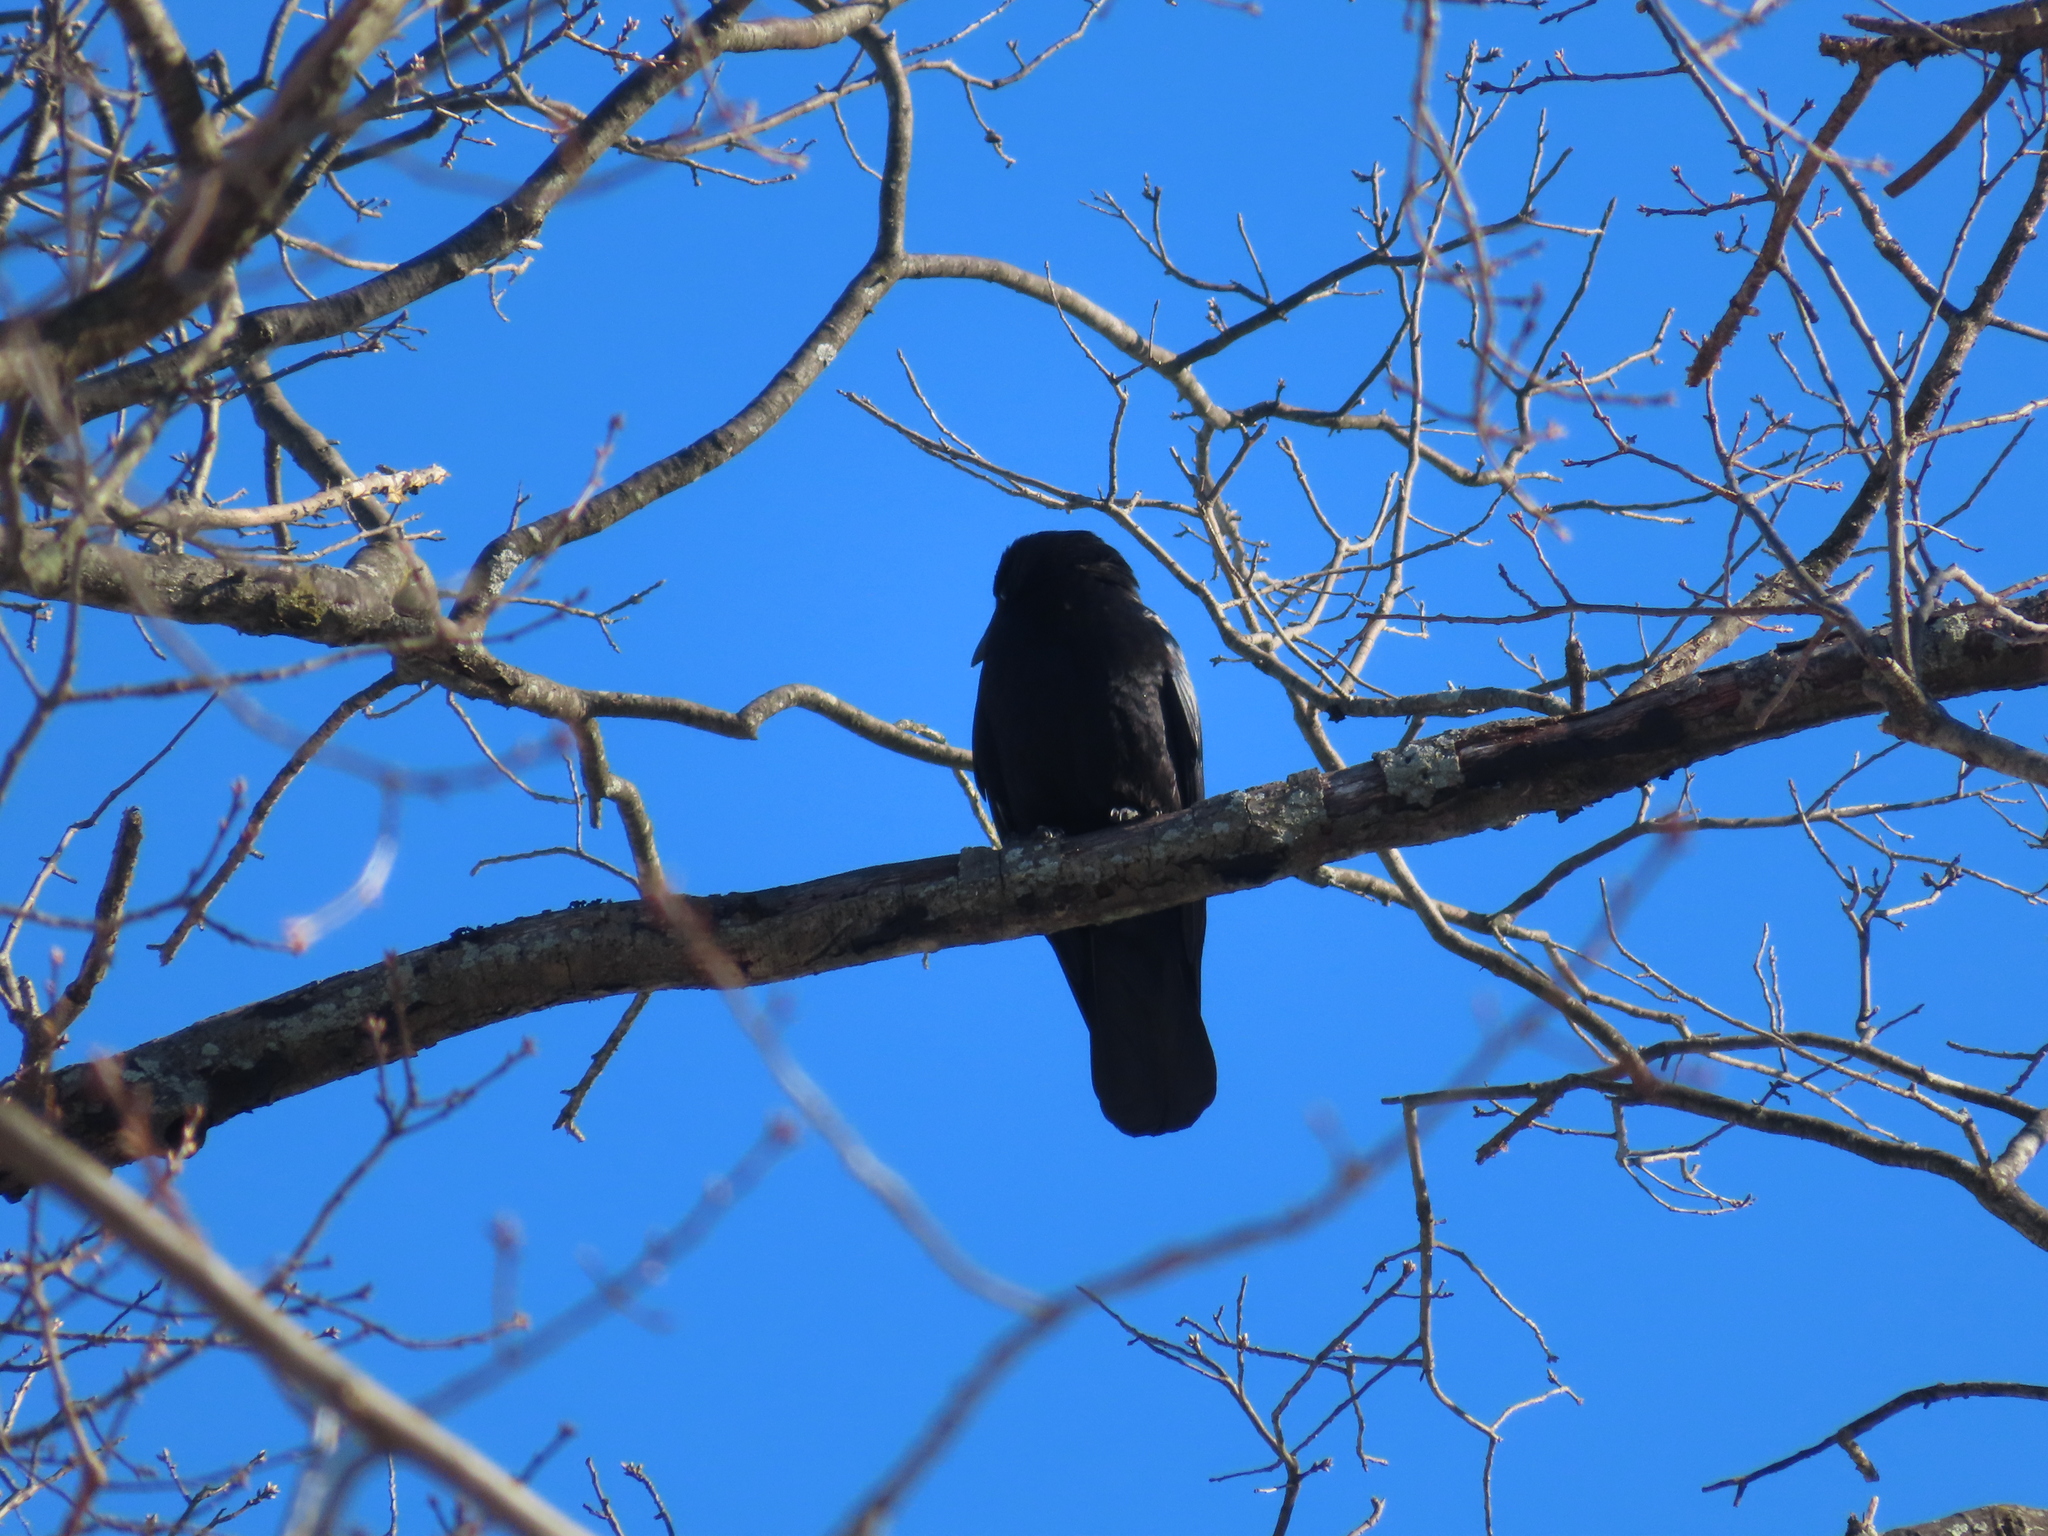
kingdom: Animalia
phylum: Chordata
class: Aves
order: Passeriformes
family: Corvidae
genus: Corvus
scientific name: Corvus
